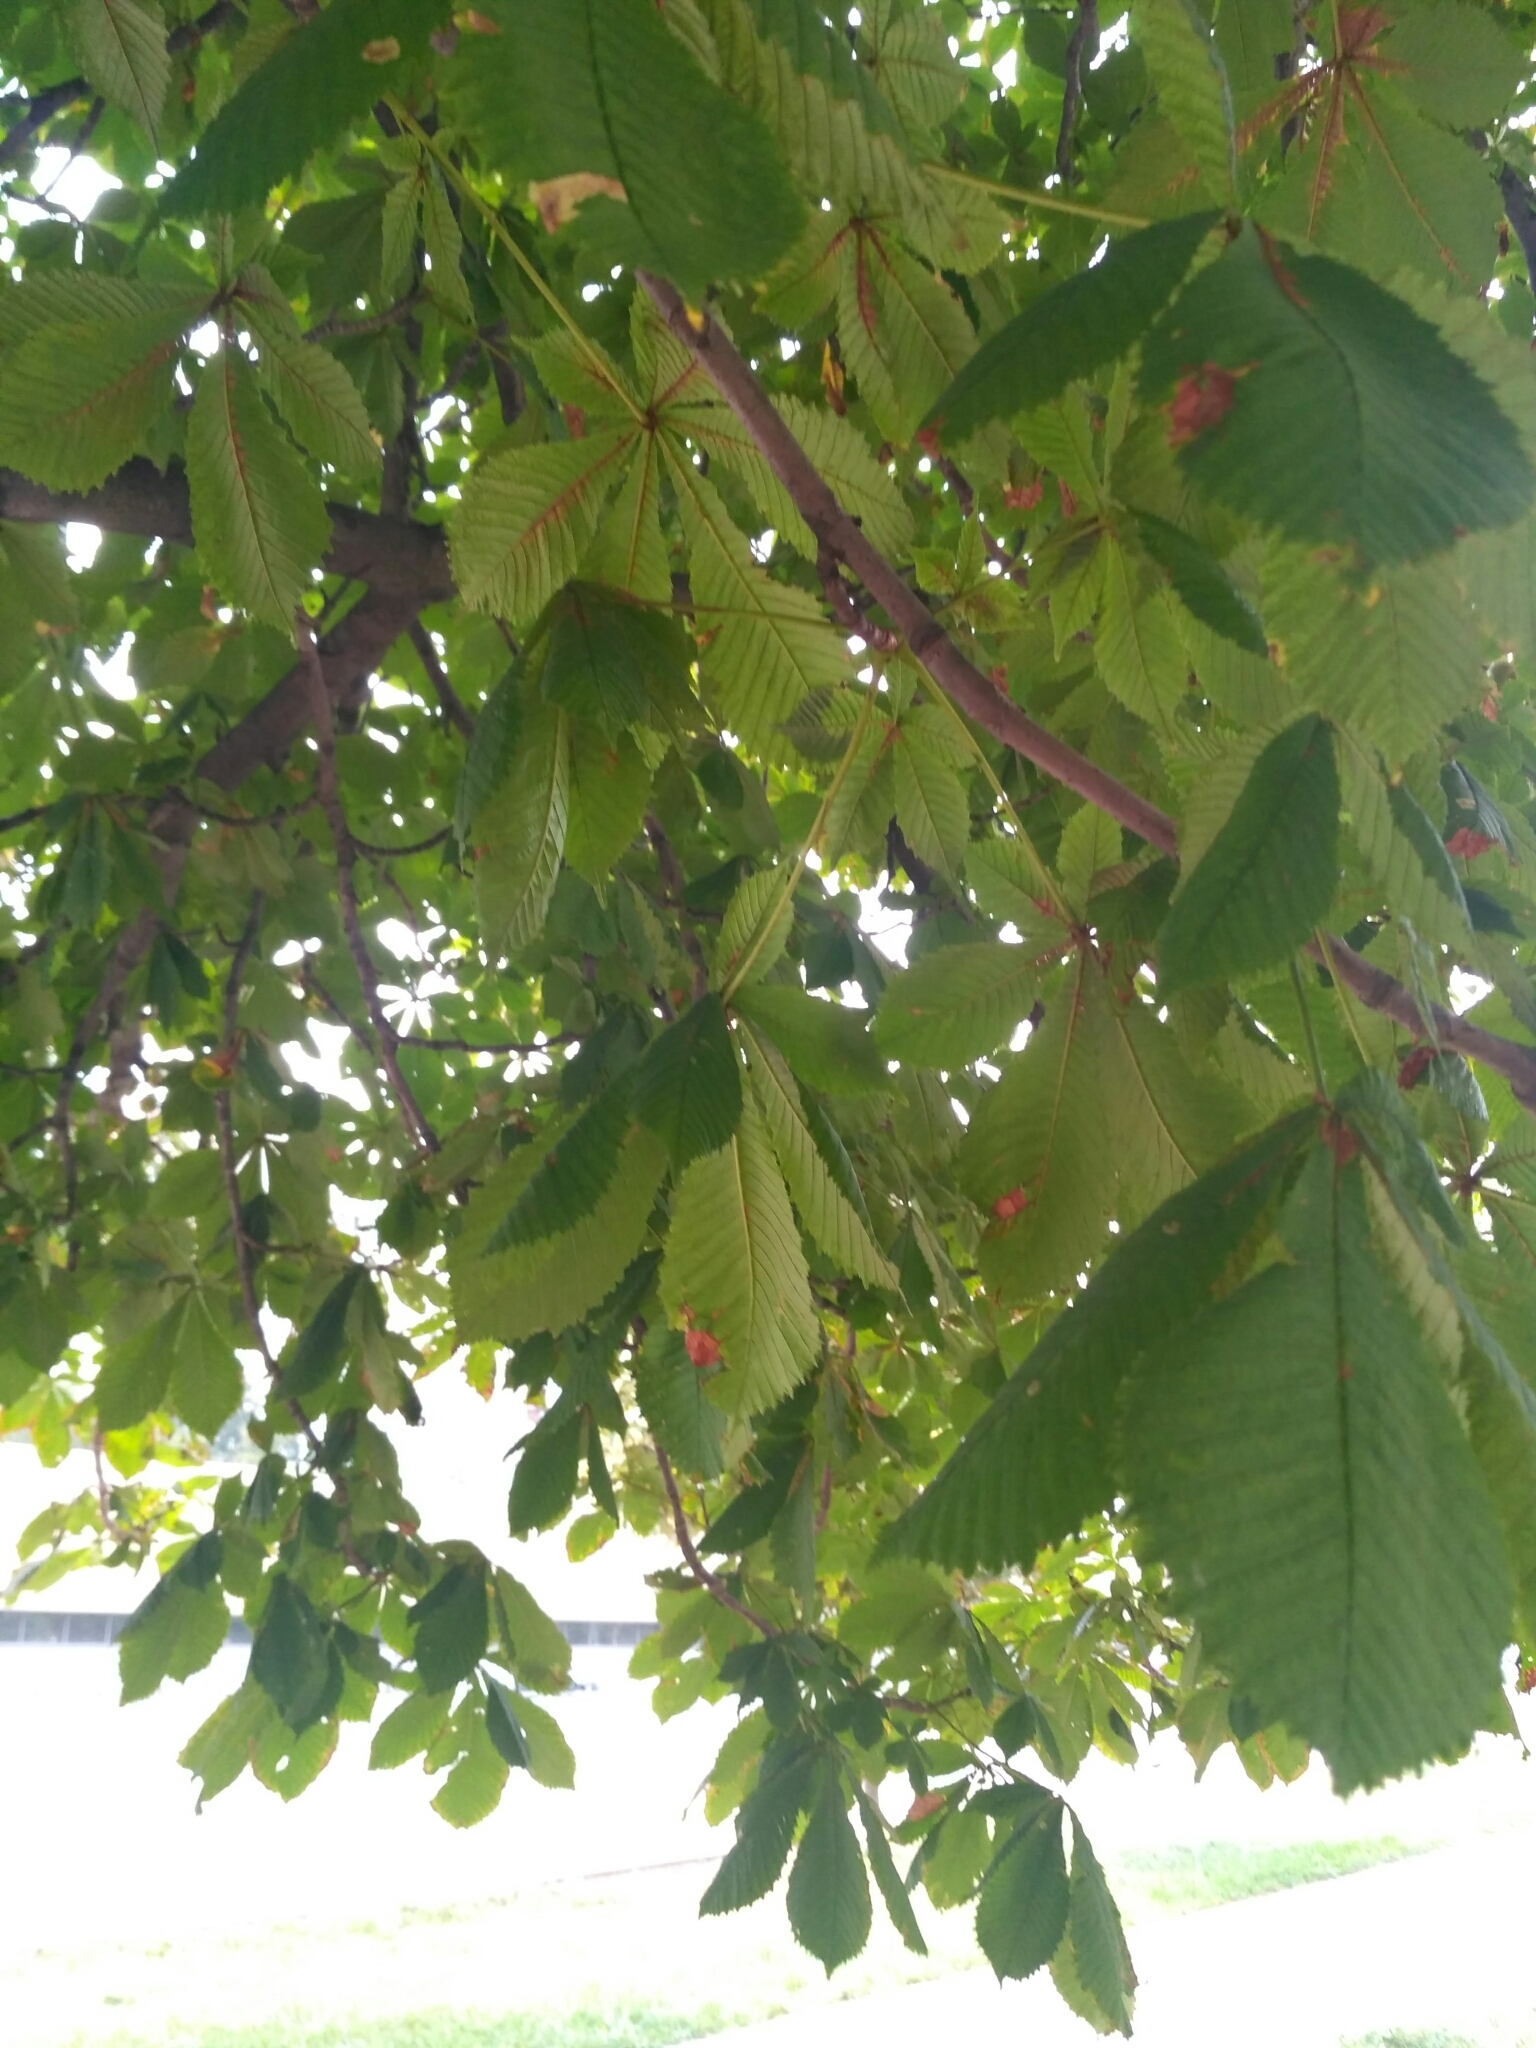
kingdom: Fungi
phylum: Basidiomycota
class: Agaricomycetes
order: Corticiales
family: Corticiaceae
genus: Erythricium
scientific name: Erythricium aurantiacum
